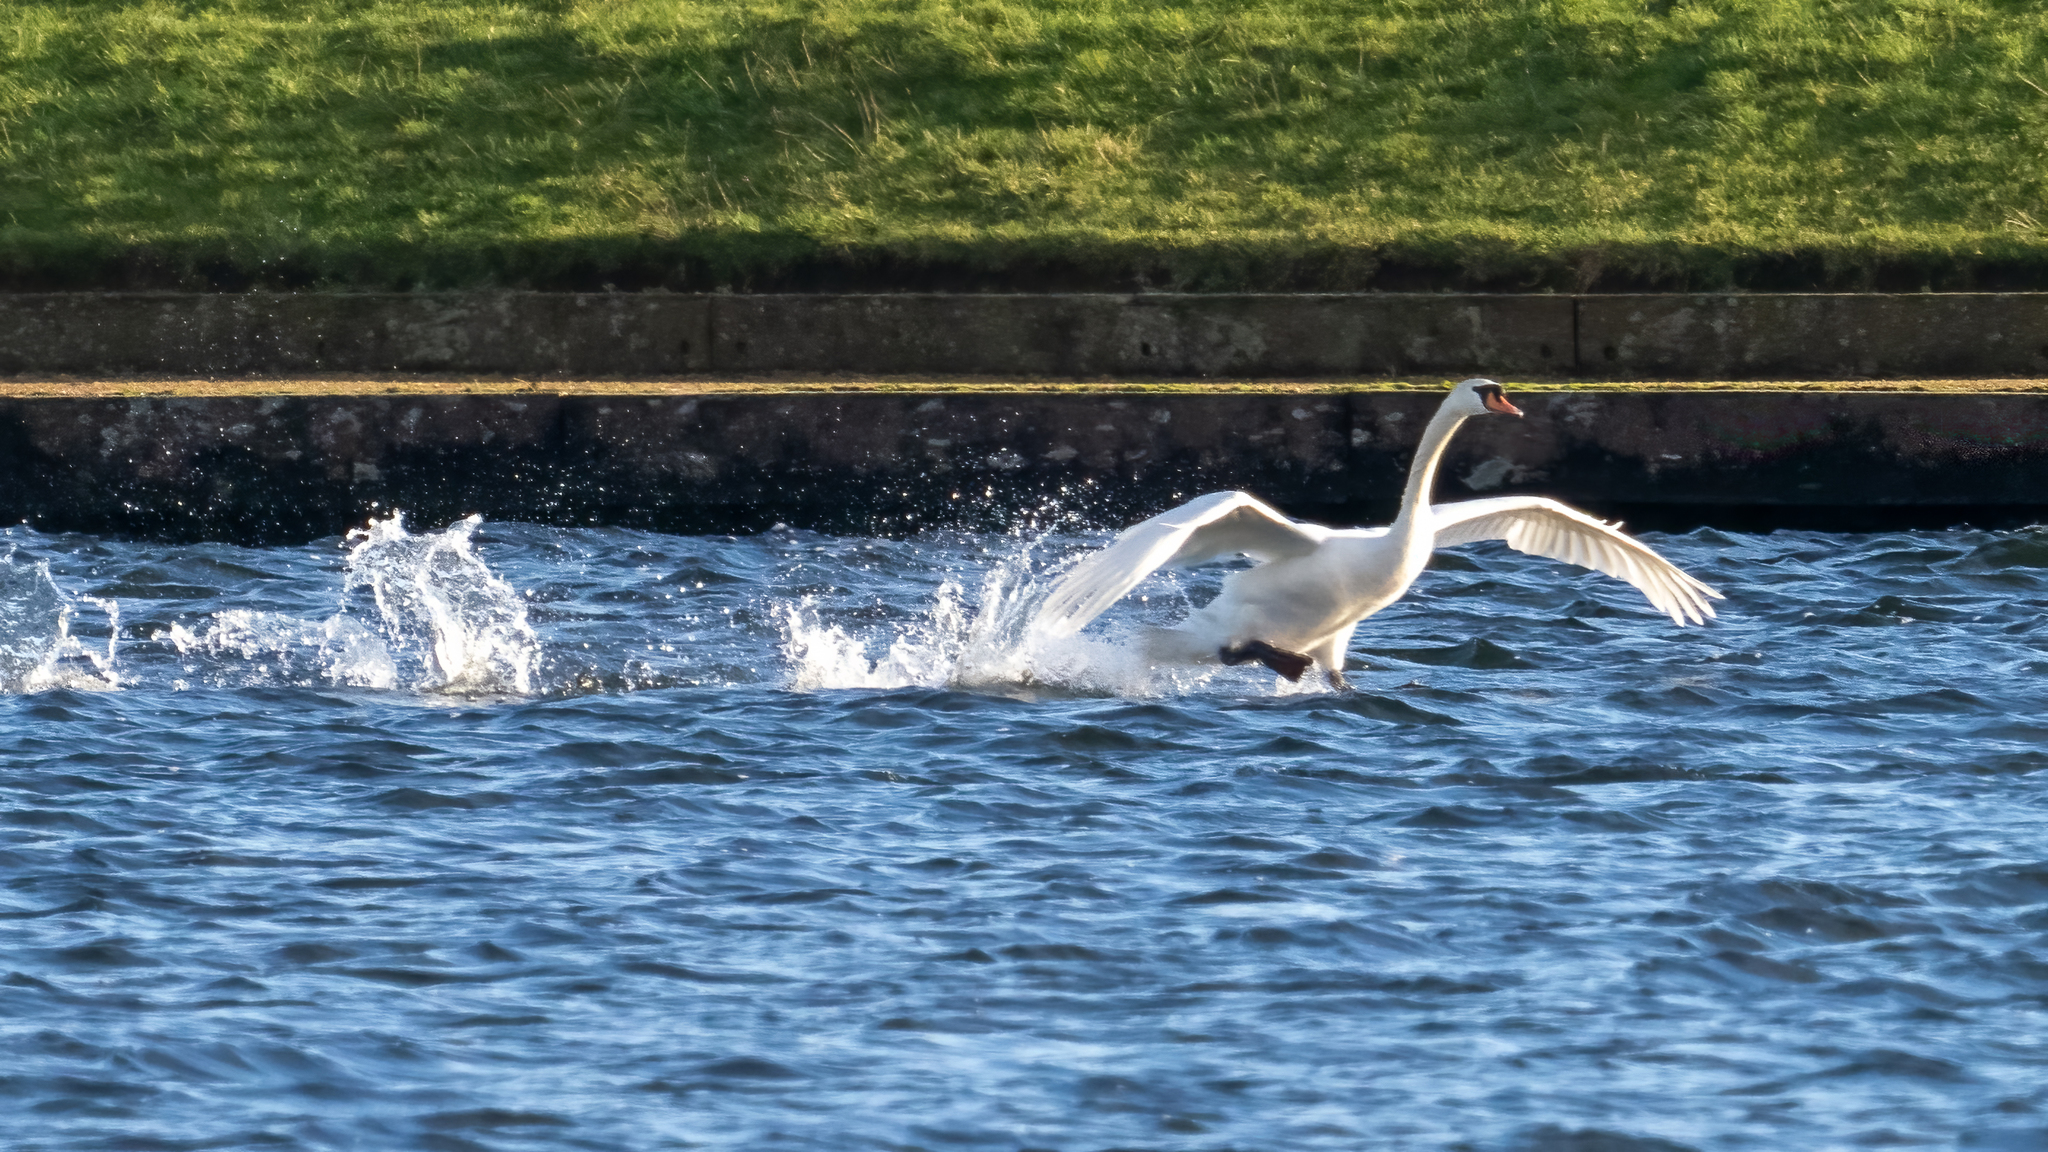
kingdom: Animalia
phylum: Chordata
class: Aves
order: Anseriformes
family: Anatidae
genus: Cygnus
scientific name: Cygnus olor
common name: Mute swan
